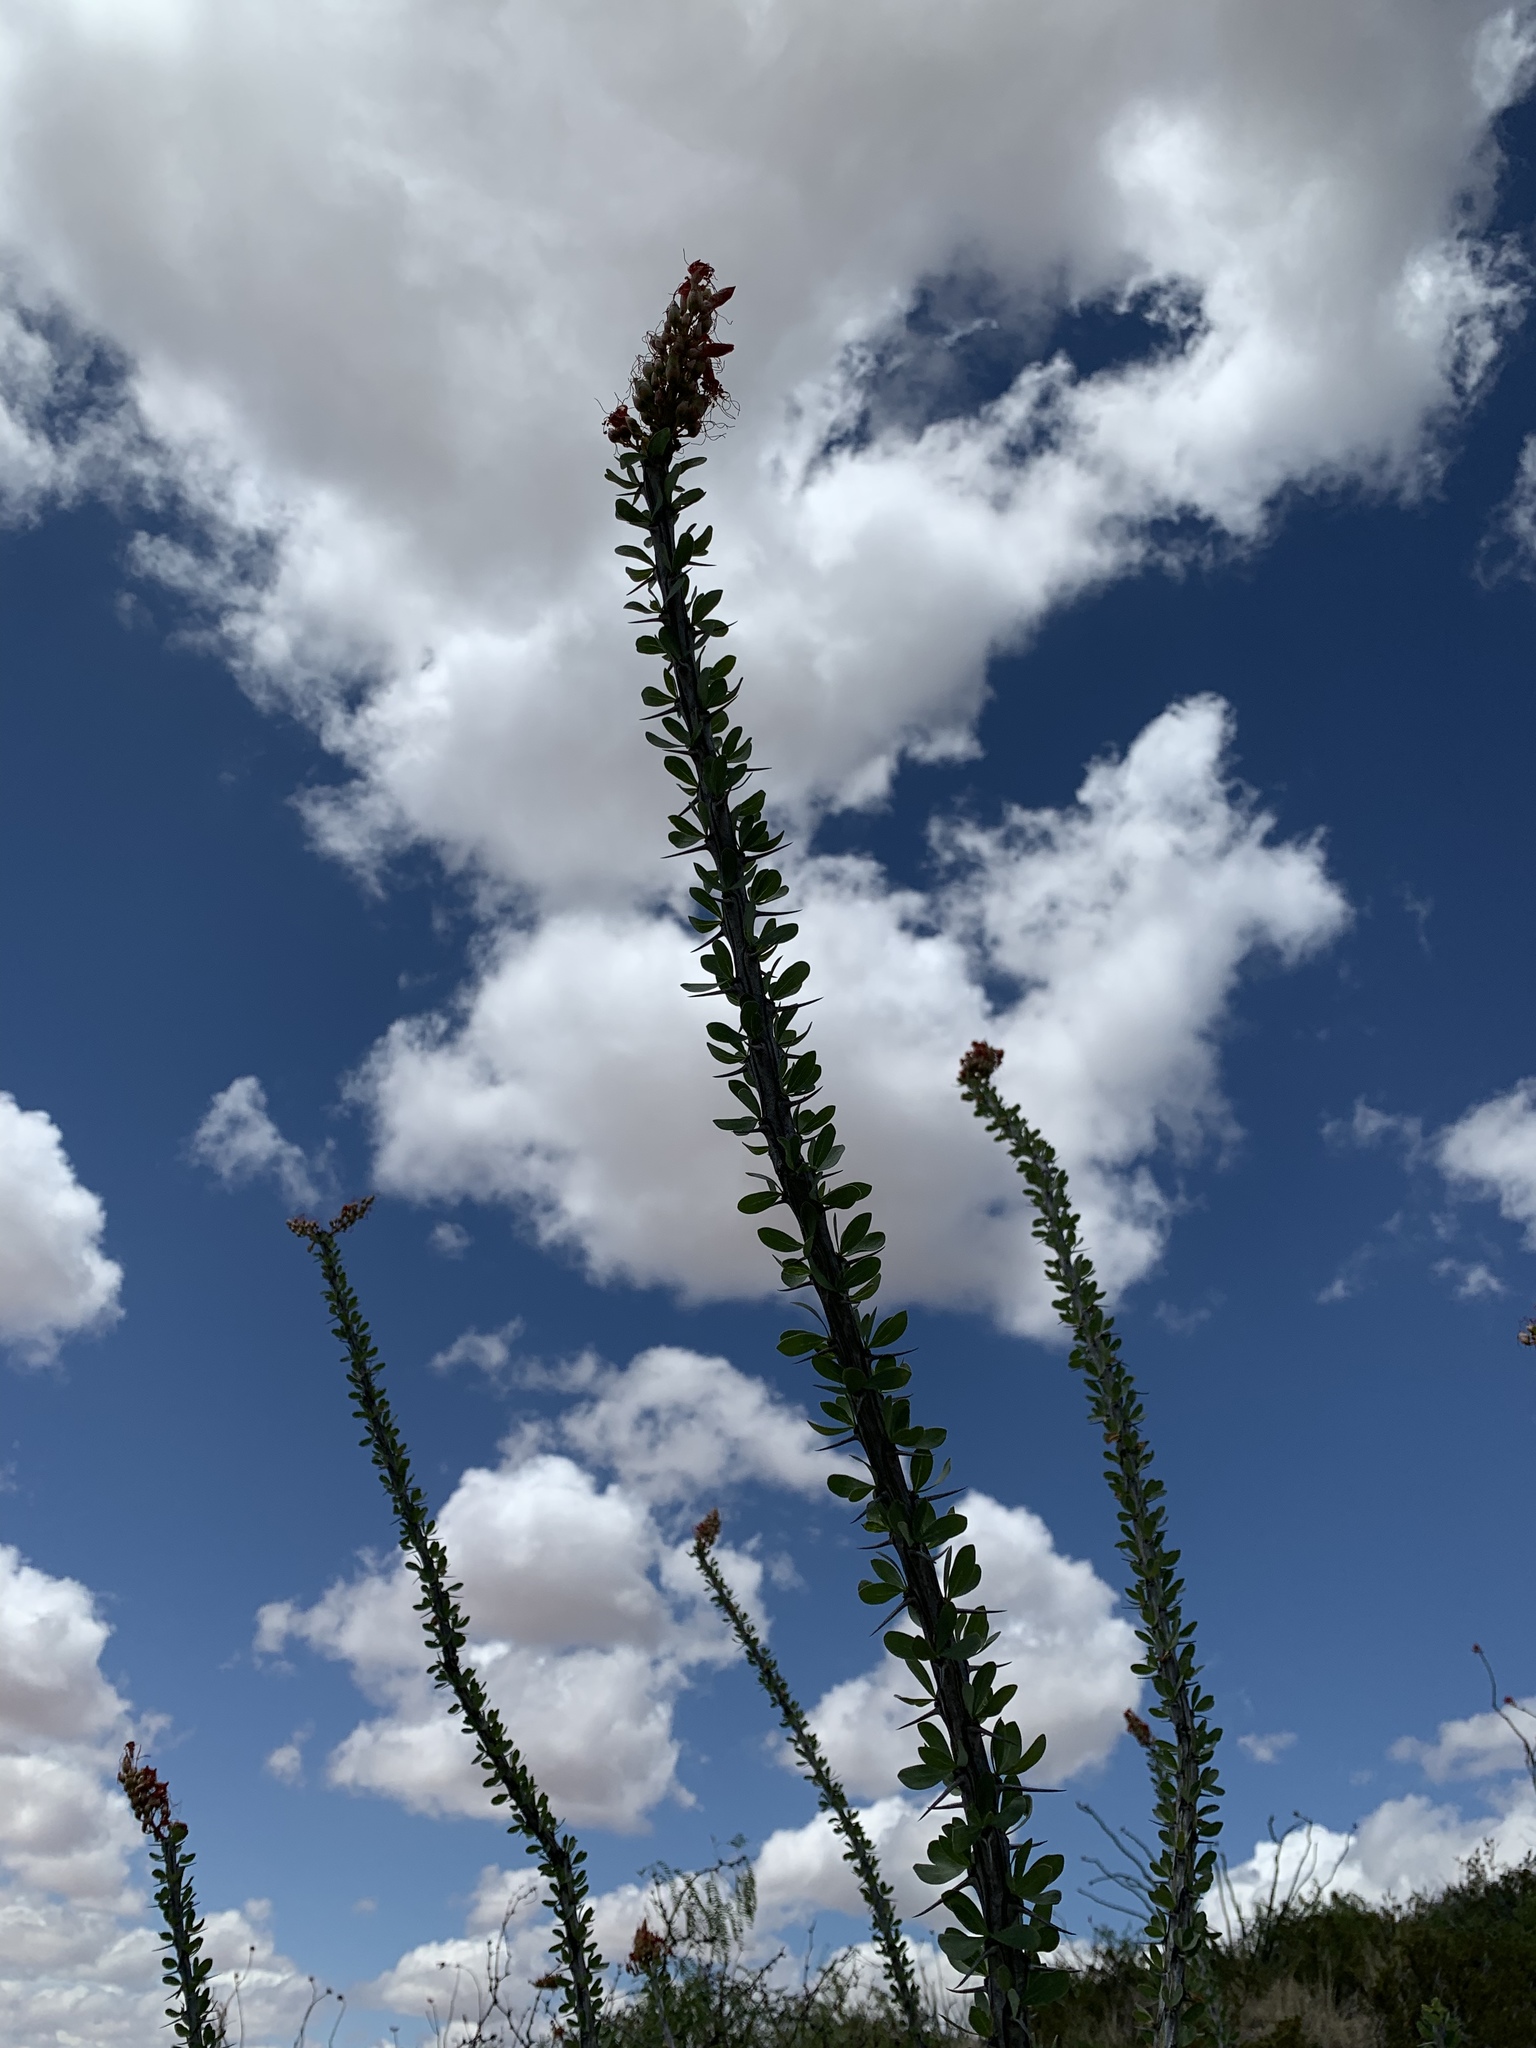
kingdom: Plantae
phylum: Tracheophyta
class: Magnoliopsida
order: Ericales
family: Fouquieriaceae
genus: Fouquieria
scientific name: Fouquieria splendens
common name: Vine-cactus
